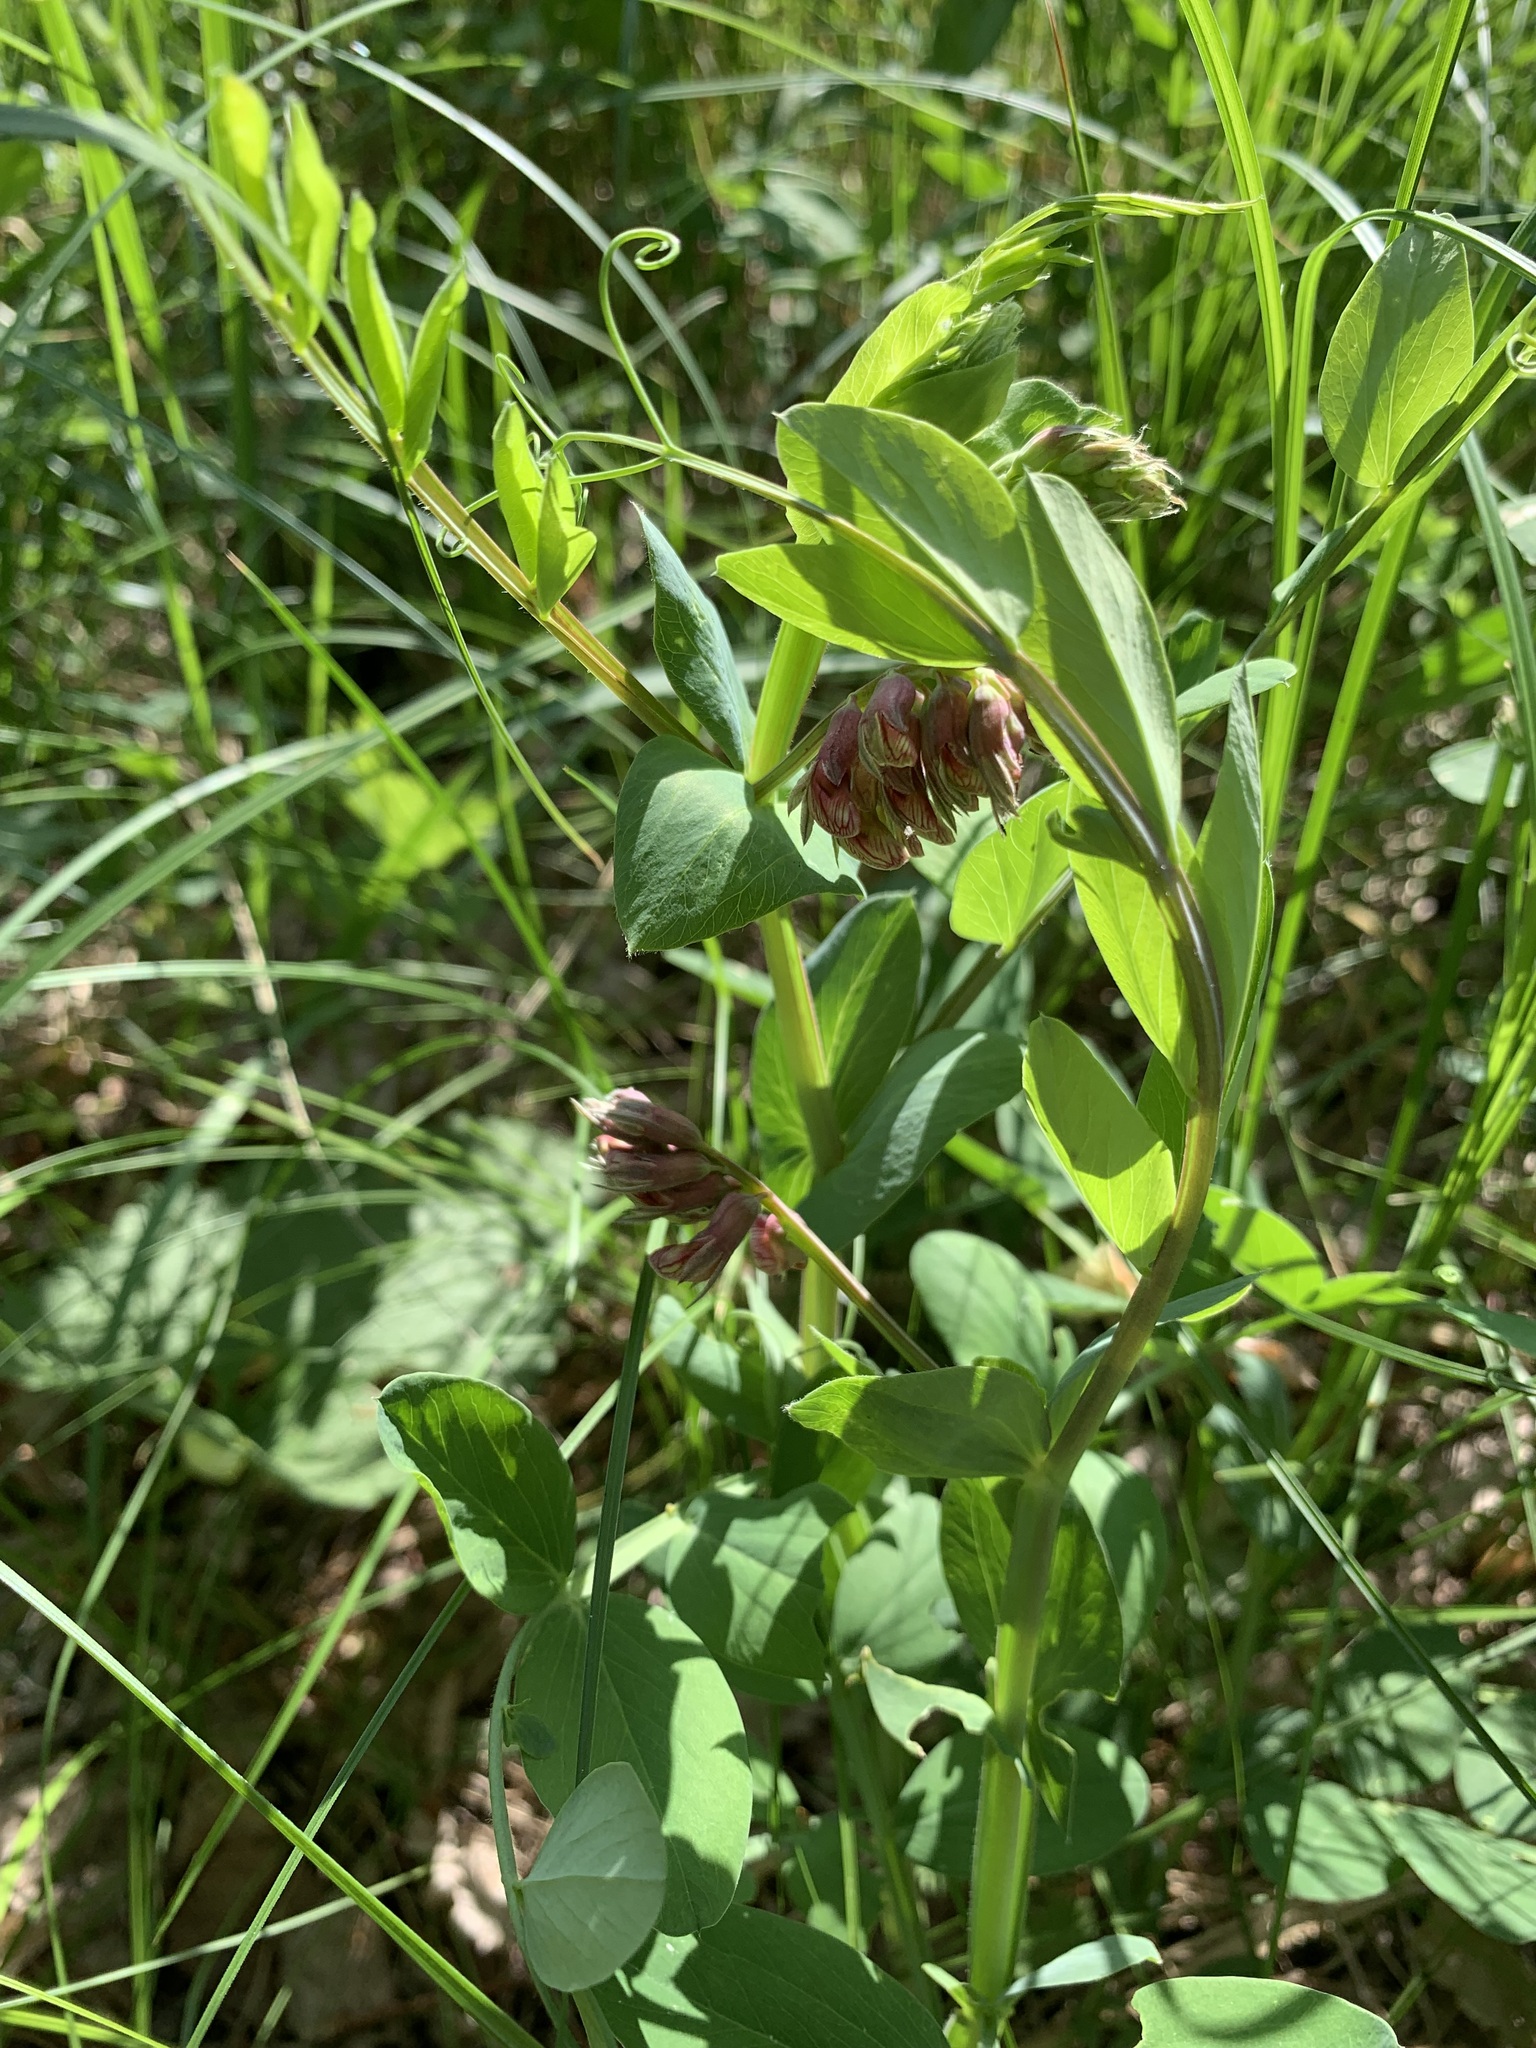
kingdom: Plantae
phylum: Tracheophyta
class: Magnoliopsida
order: Fabales
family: Fabaceae
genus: Lathyrus
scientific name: Lathyrus pisiformis
